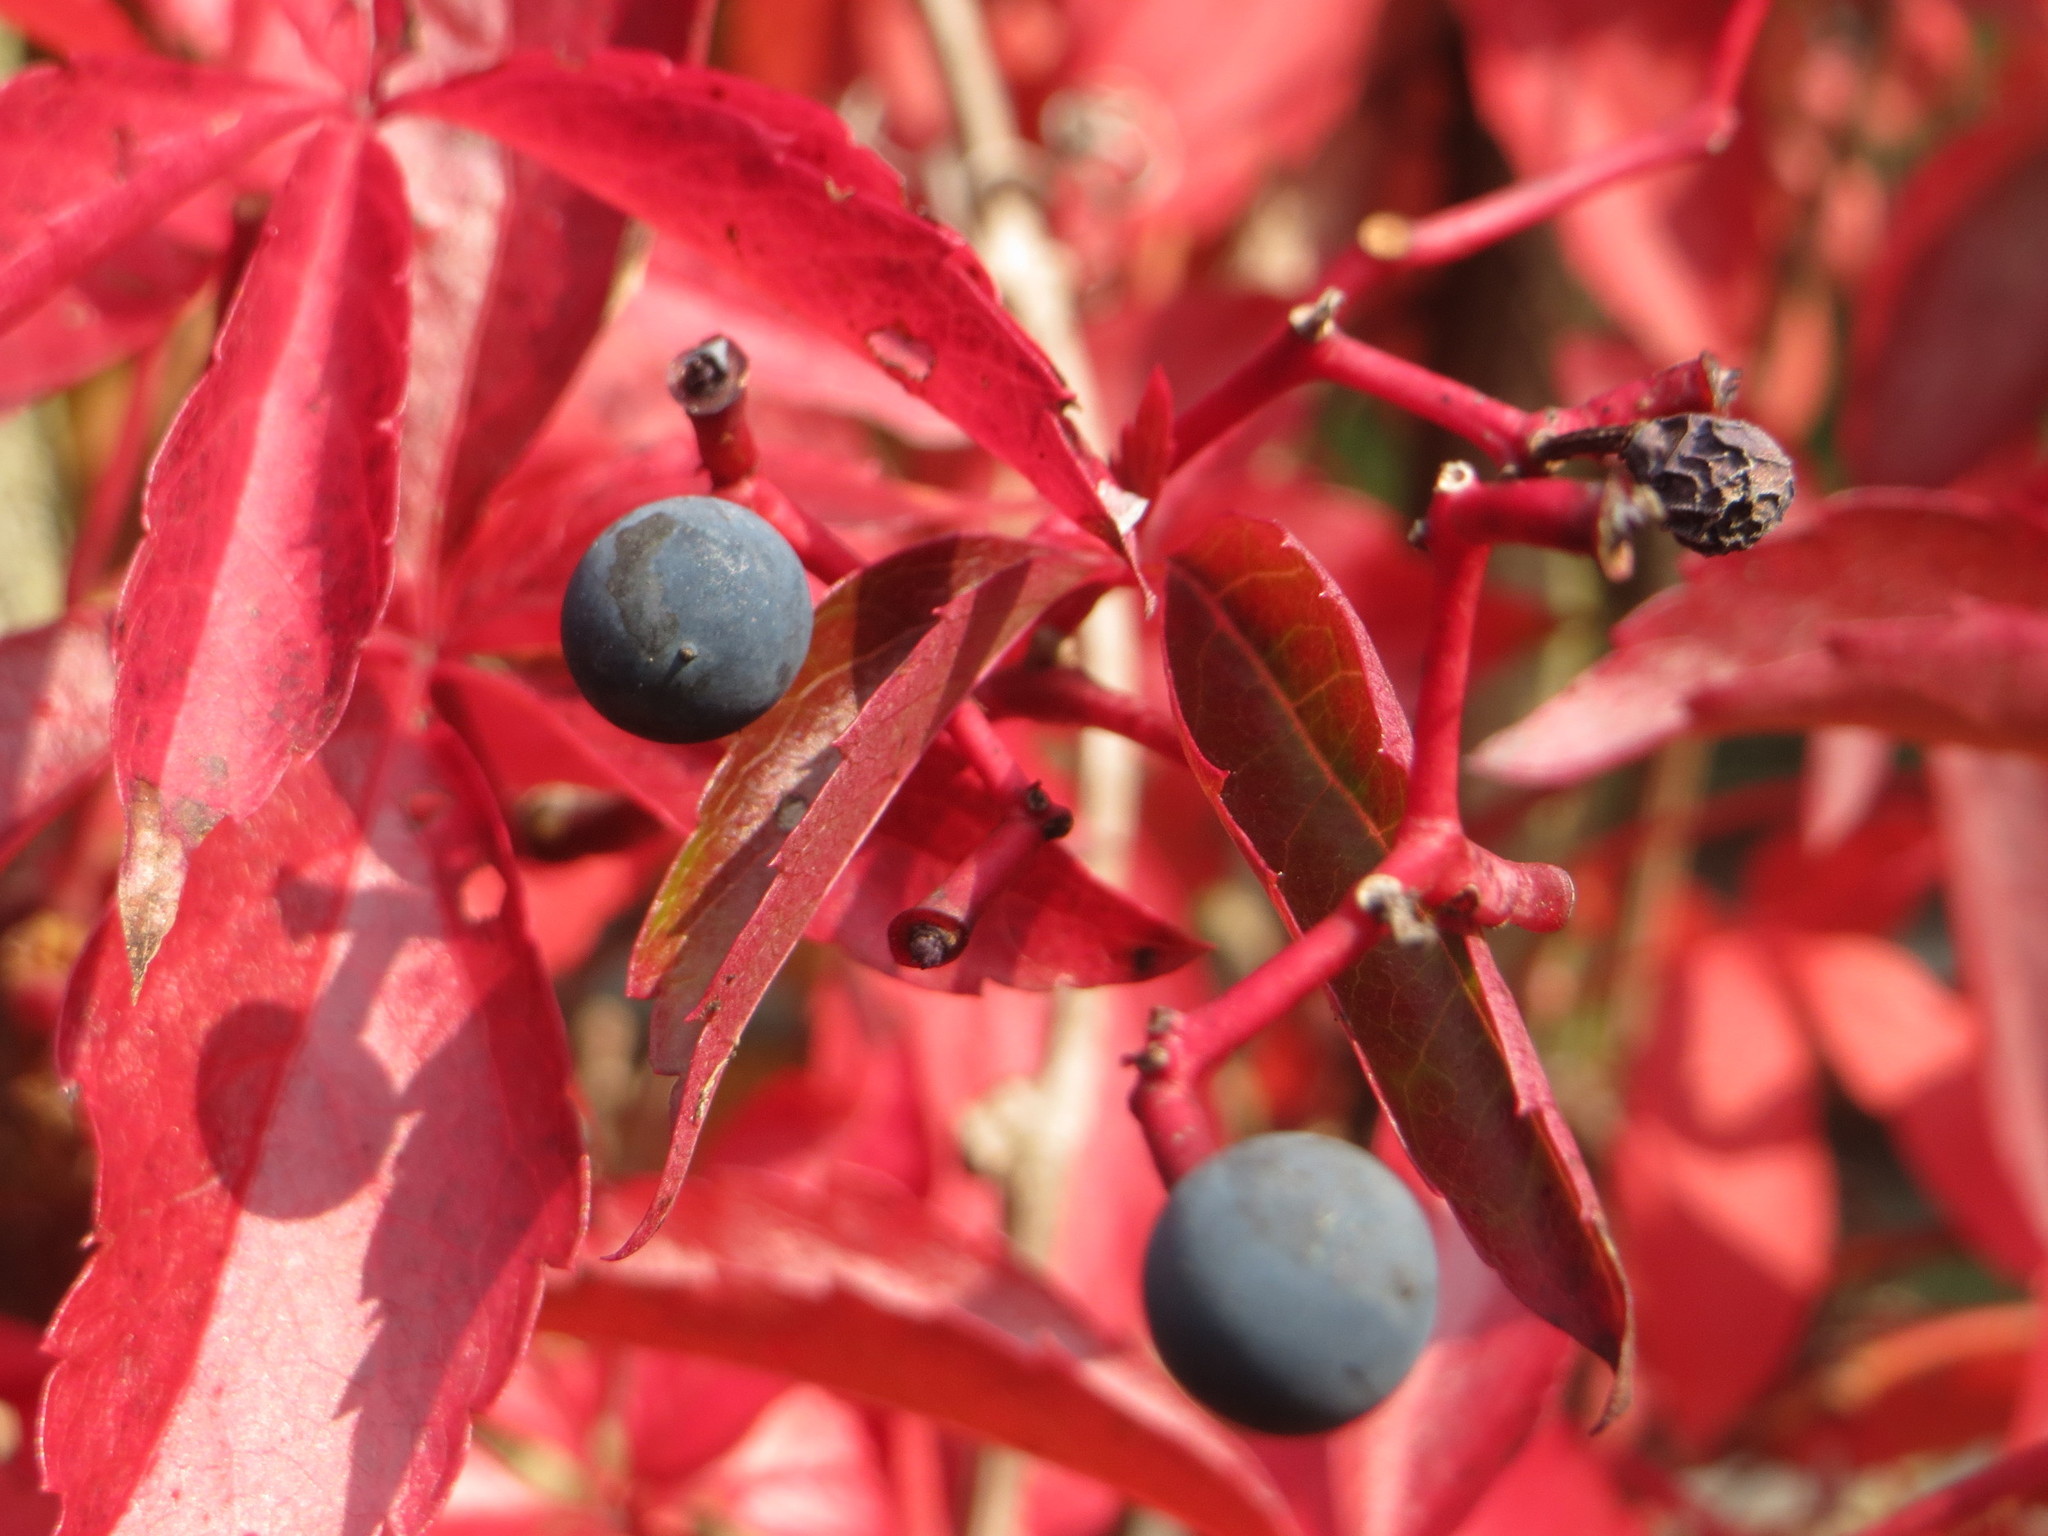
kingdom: Plantae
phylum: Tracheophyta
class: Magnoliopsida
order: Vitales
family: Vitaceae
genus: Parthenocissus
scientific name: Parthenocissus quinquefolia
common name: Virginia-creeper
